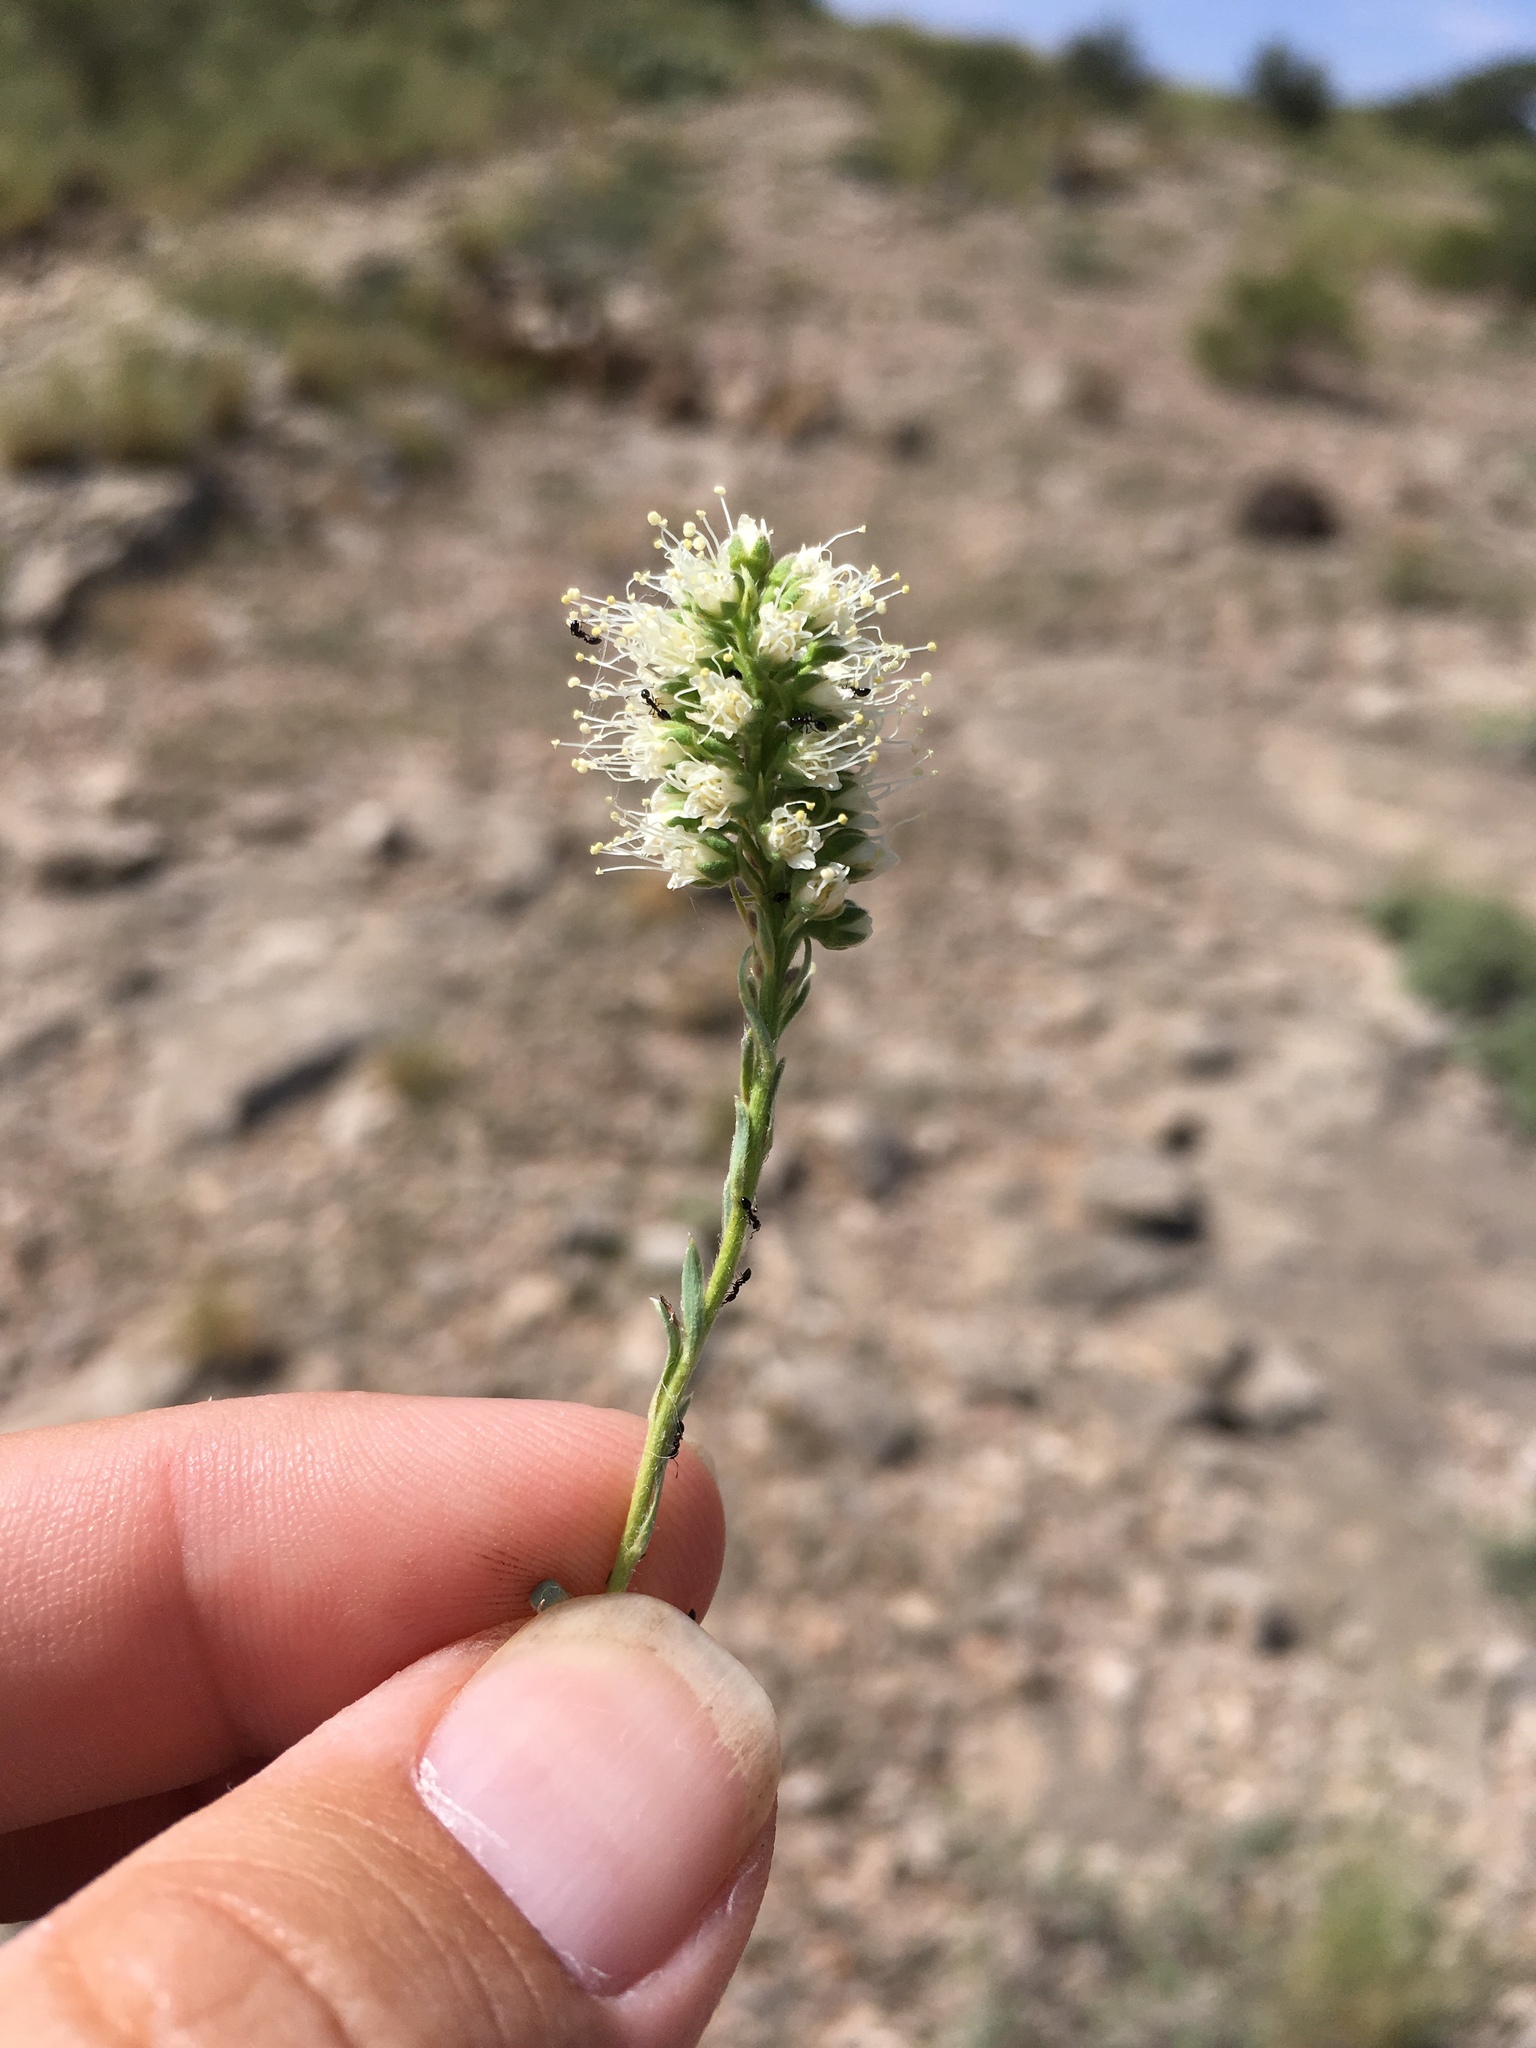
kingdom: Plantae
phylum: Tracheophyta
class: Magnoliopsida
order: Rosales
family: Rosaceae
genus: Petrophytum
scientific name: Petrophytum caespitosum
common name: Mat rockspirea
